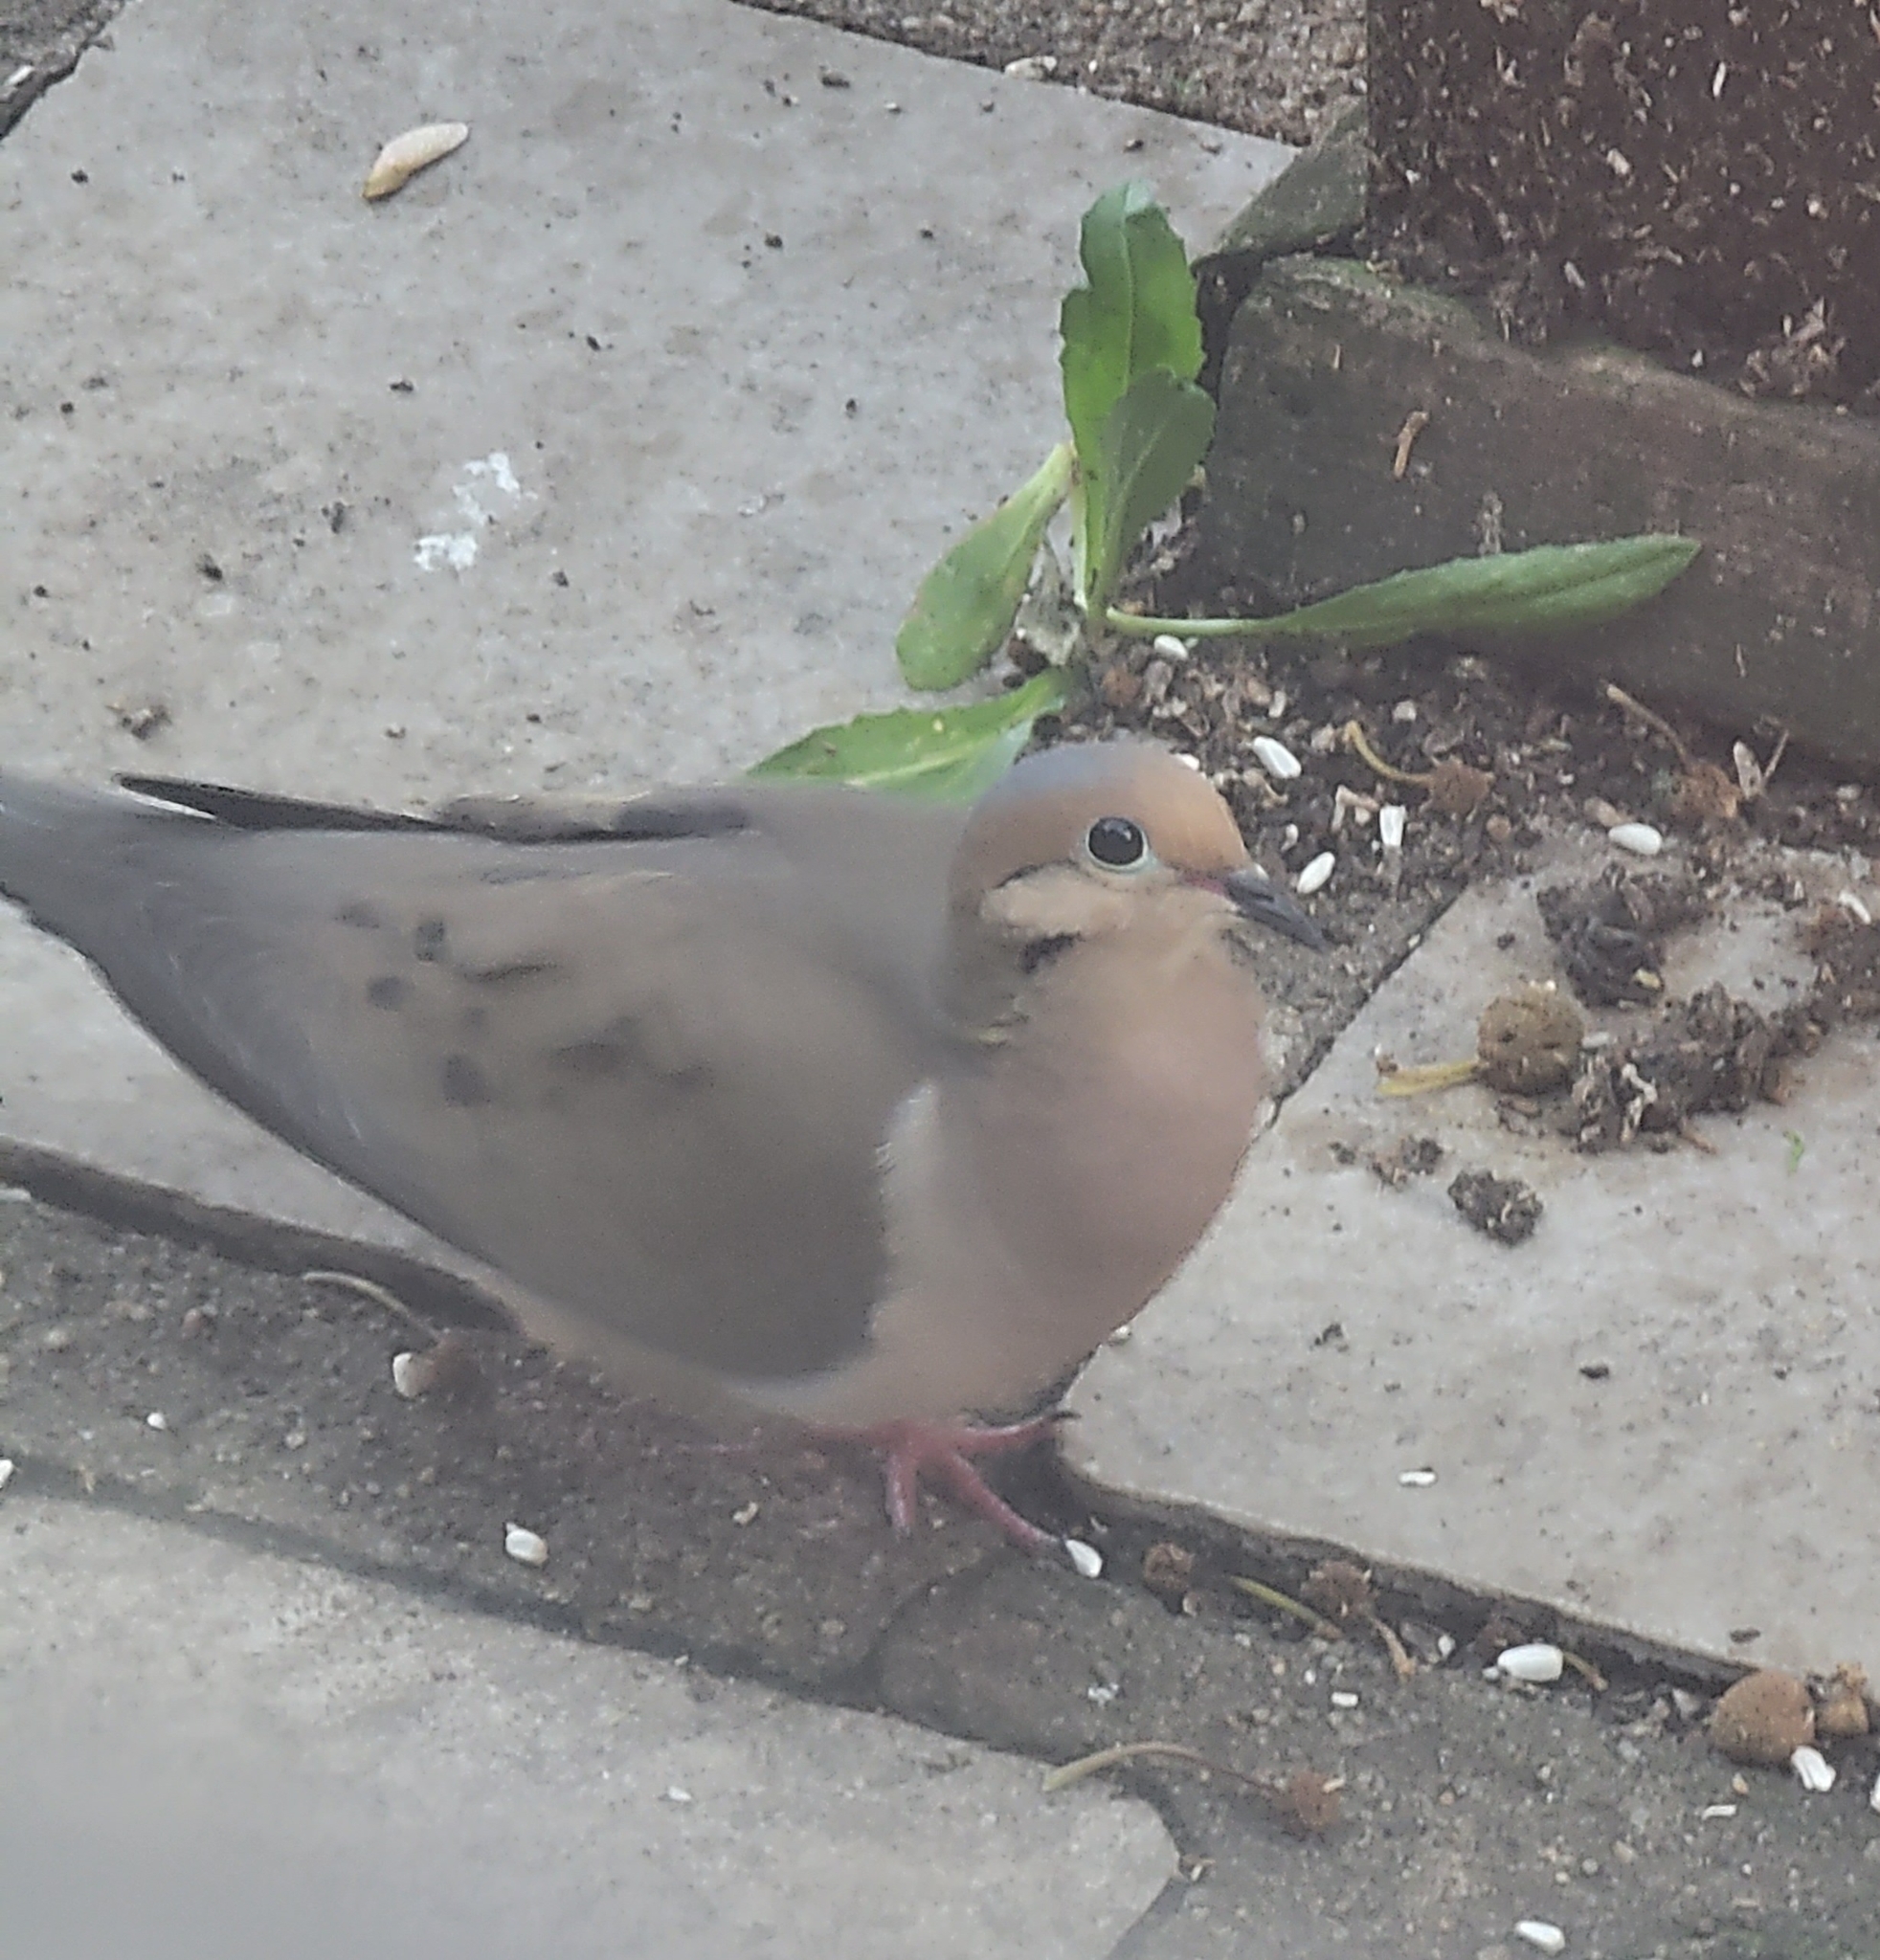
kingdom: Animalia
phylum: Chordata
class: Aves
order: Columbiformes
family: Columbidae
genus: Zenaida
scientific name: Zenaida macroura
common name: Mourning dove
